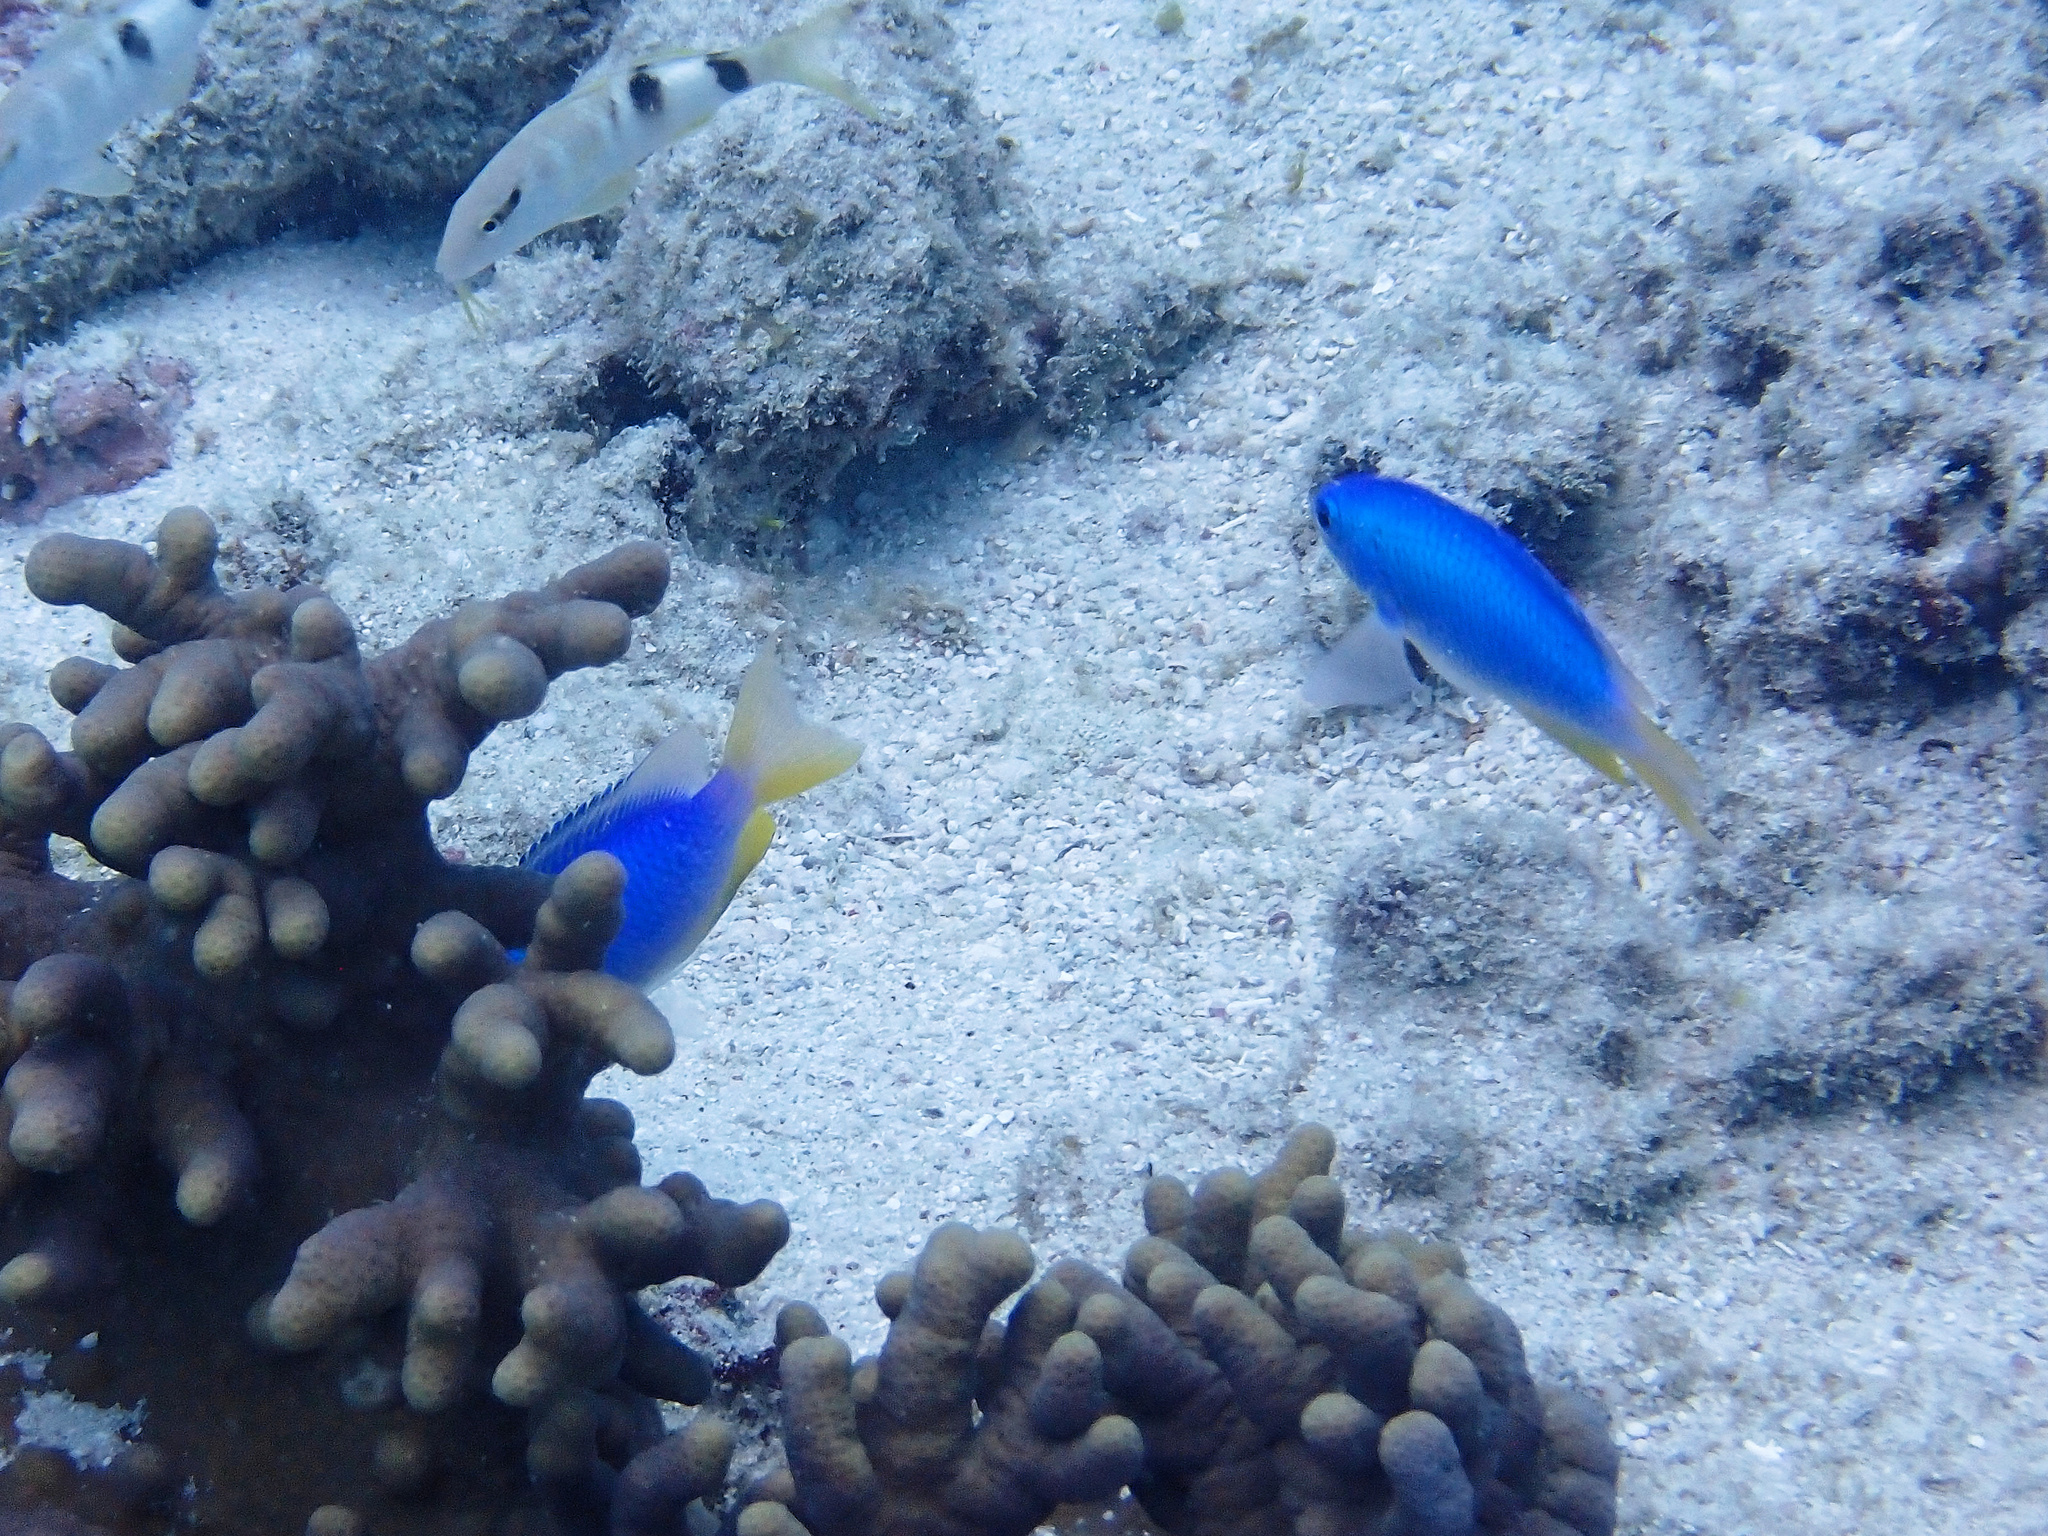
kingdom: Animalia
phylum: Chordata
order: Perciformes
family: Pomacentridae
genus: Pomacentrus
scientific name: Pomacentrus coelestis
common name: Neon damsel
